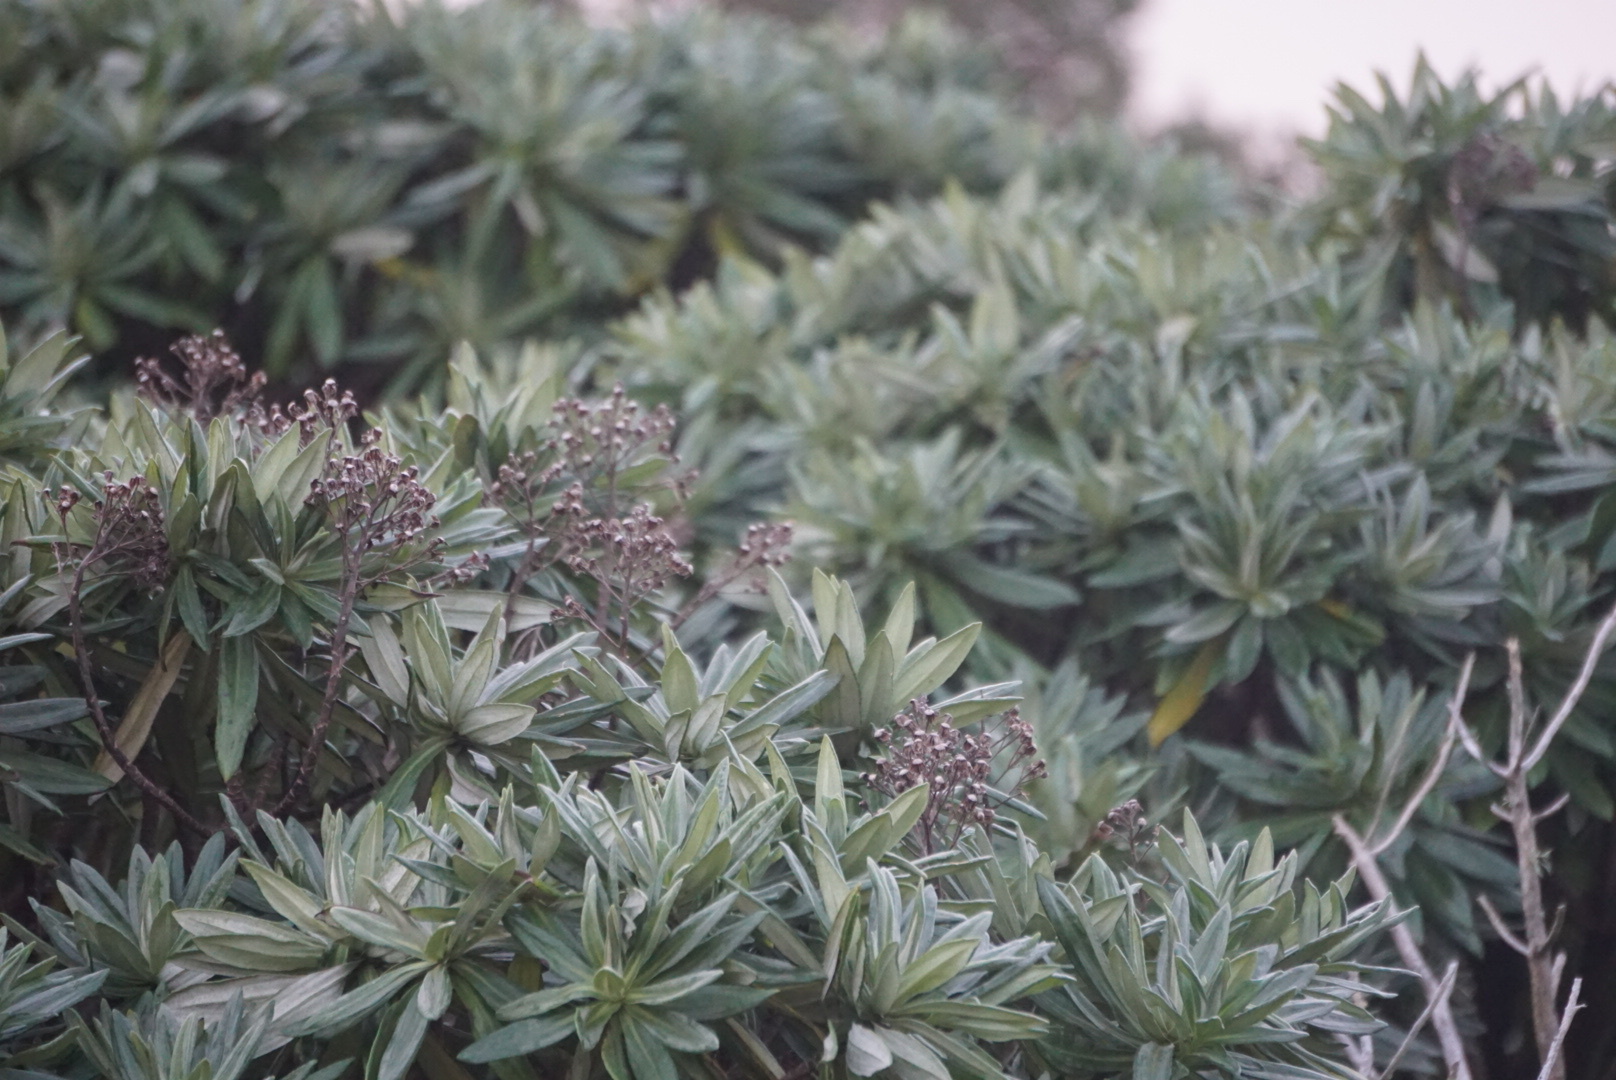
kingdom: Plantae
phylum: Tracheophyta
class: Magnoliopsida
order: Asterales
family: Asteraceae
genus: Brachyglottis
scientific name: Brachyglottis huntii
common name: Chatham island christmas tree
